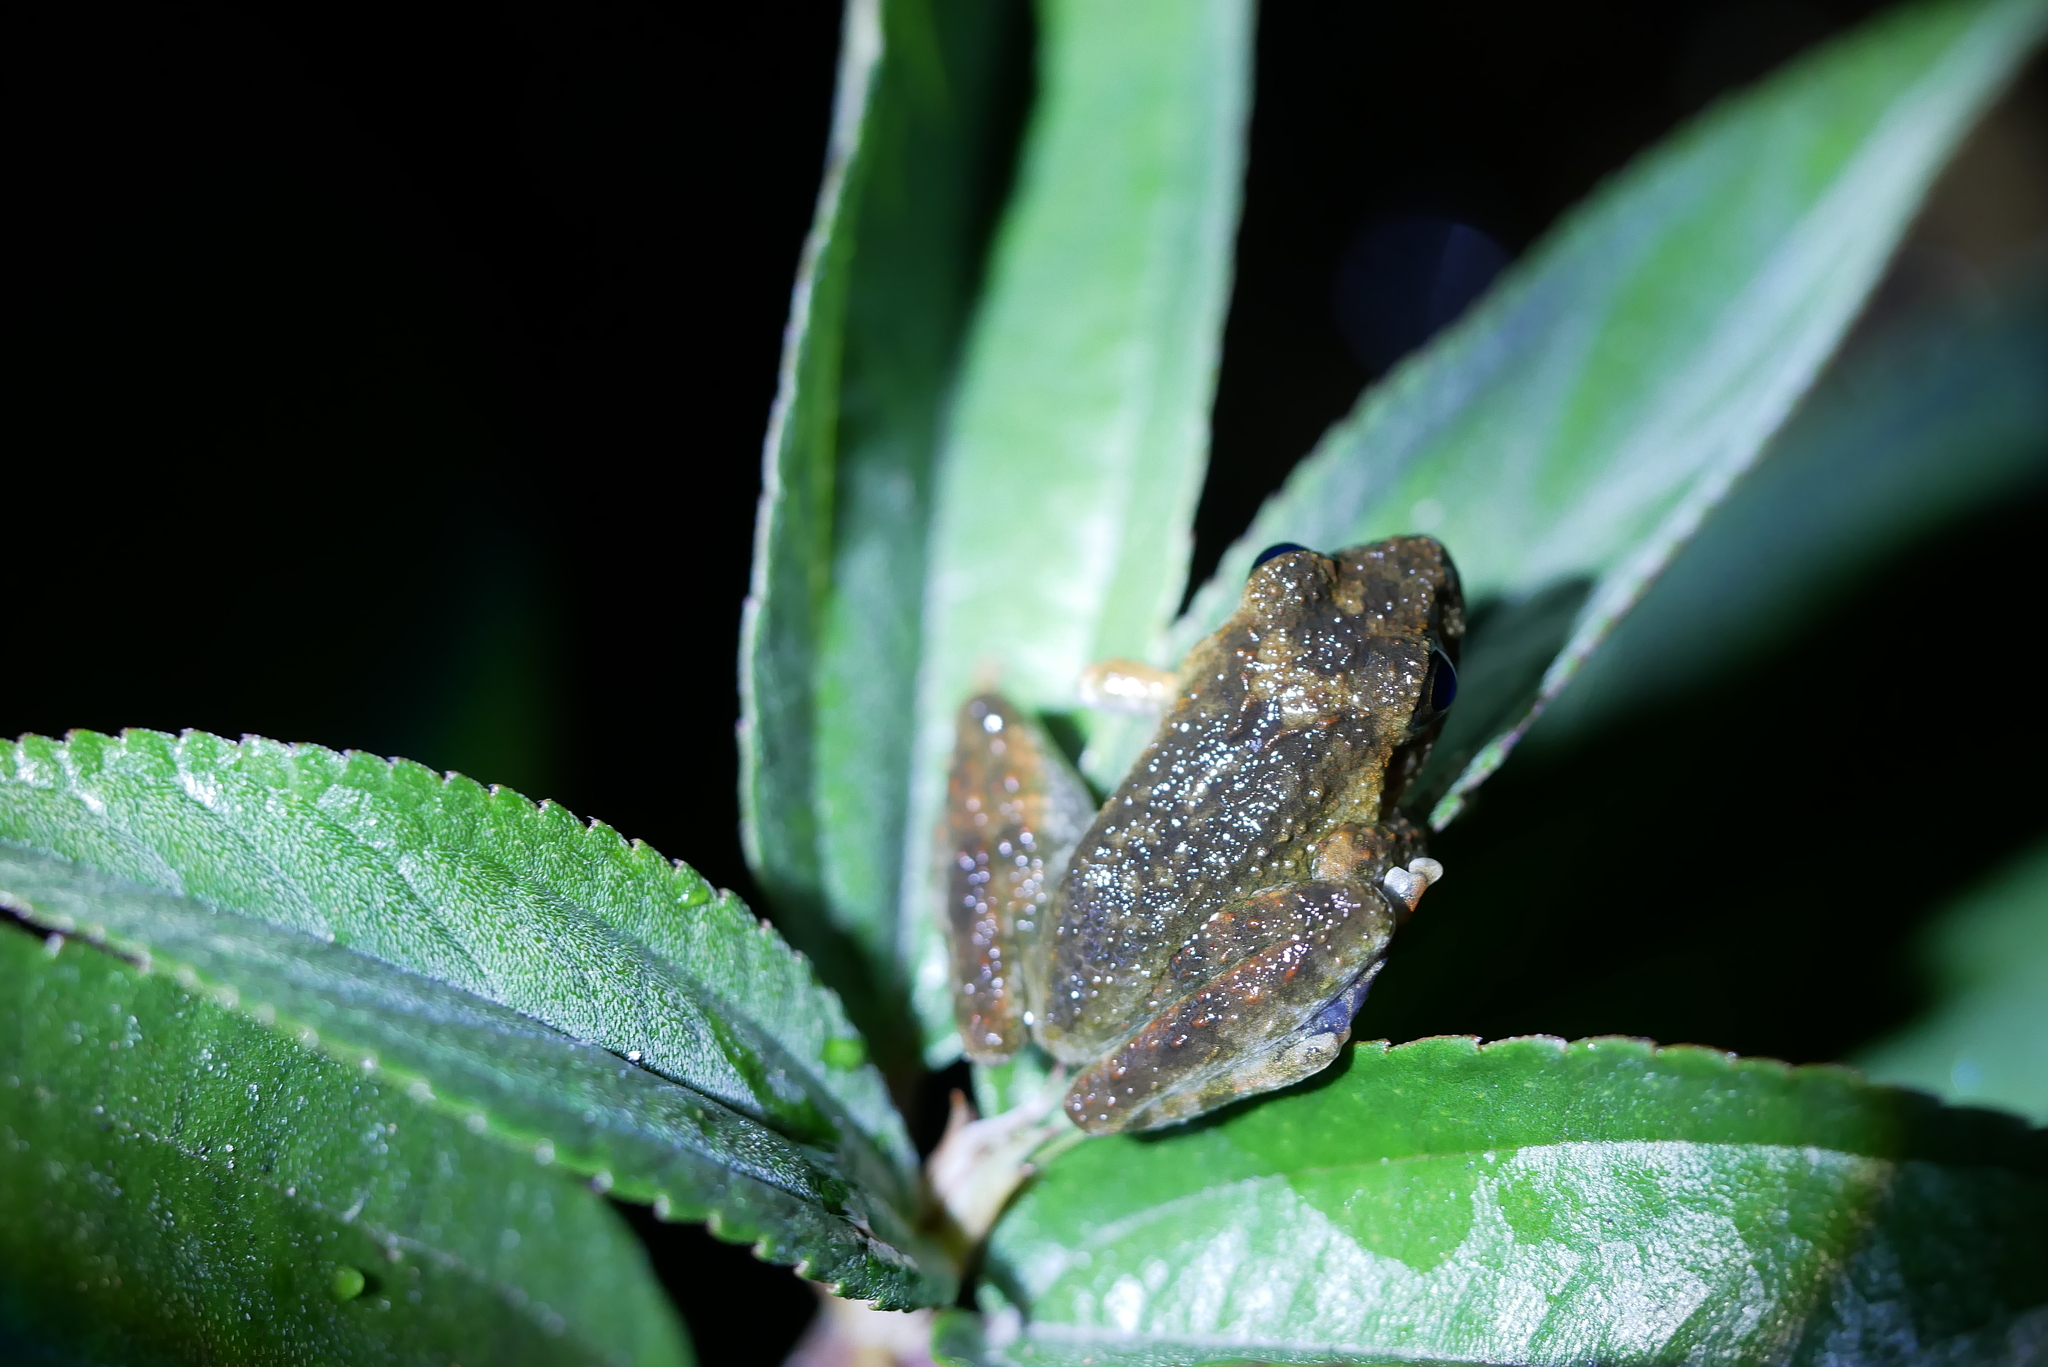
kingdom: Animalia
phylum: Chordata
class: Amphibia
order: Anura
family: Rhacophoridae
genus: Buergeria
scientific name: Buergeria otai
